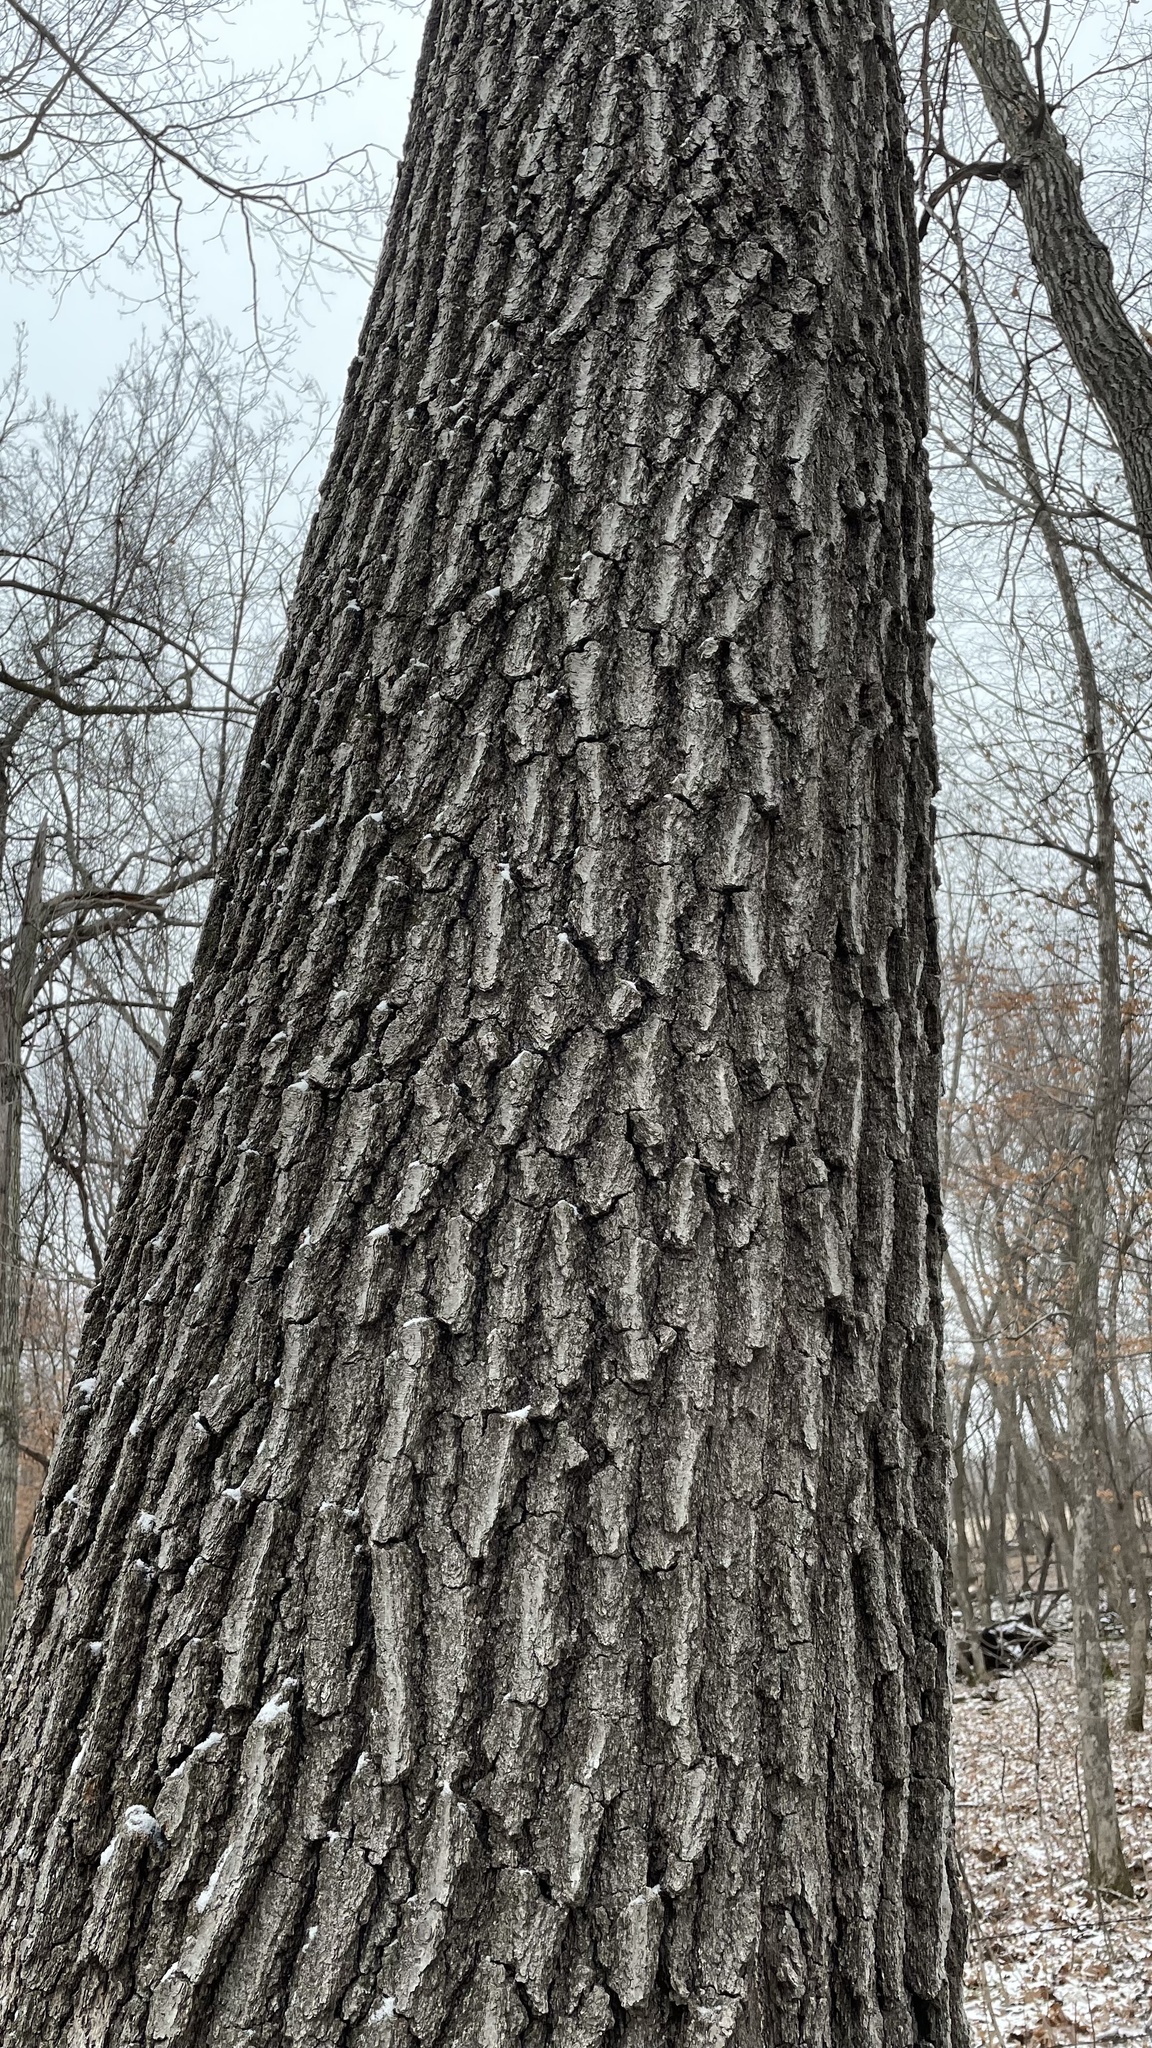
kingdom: Plantae
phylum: Tracheophyta
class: Magnoliopsida
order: Fagales
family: Fagaceae
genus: Quercus
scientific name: Quercus rubra
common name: Red oak
